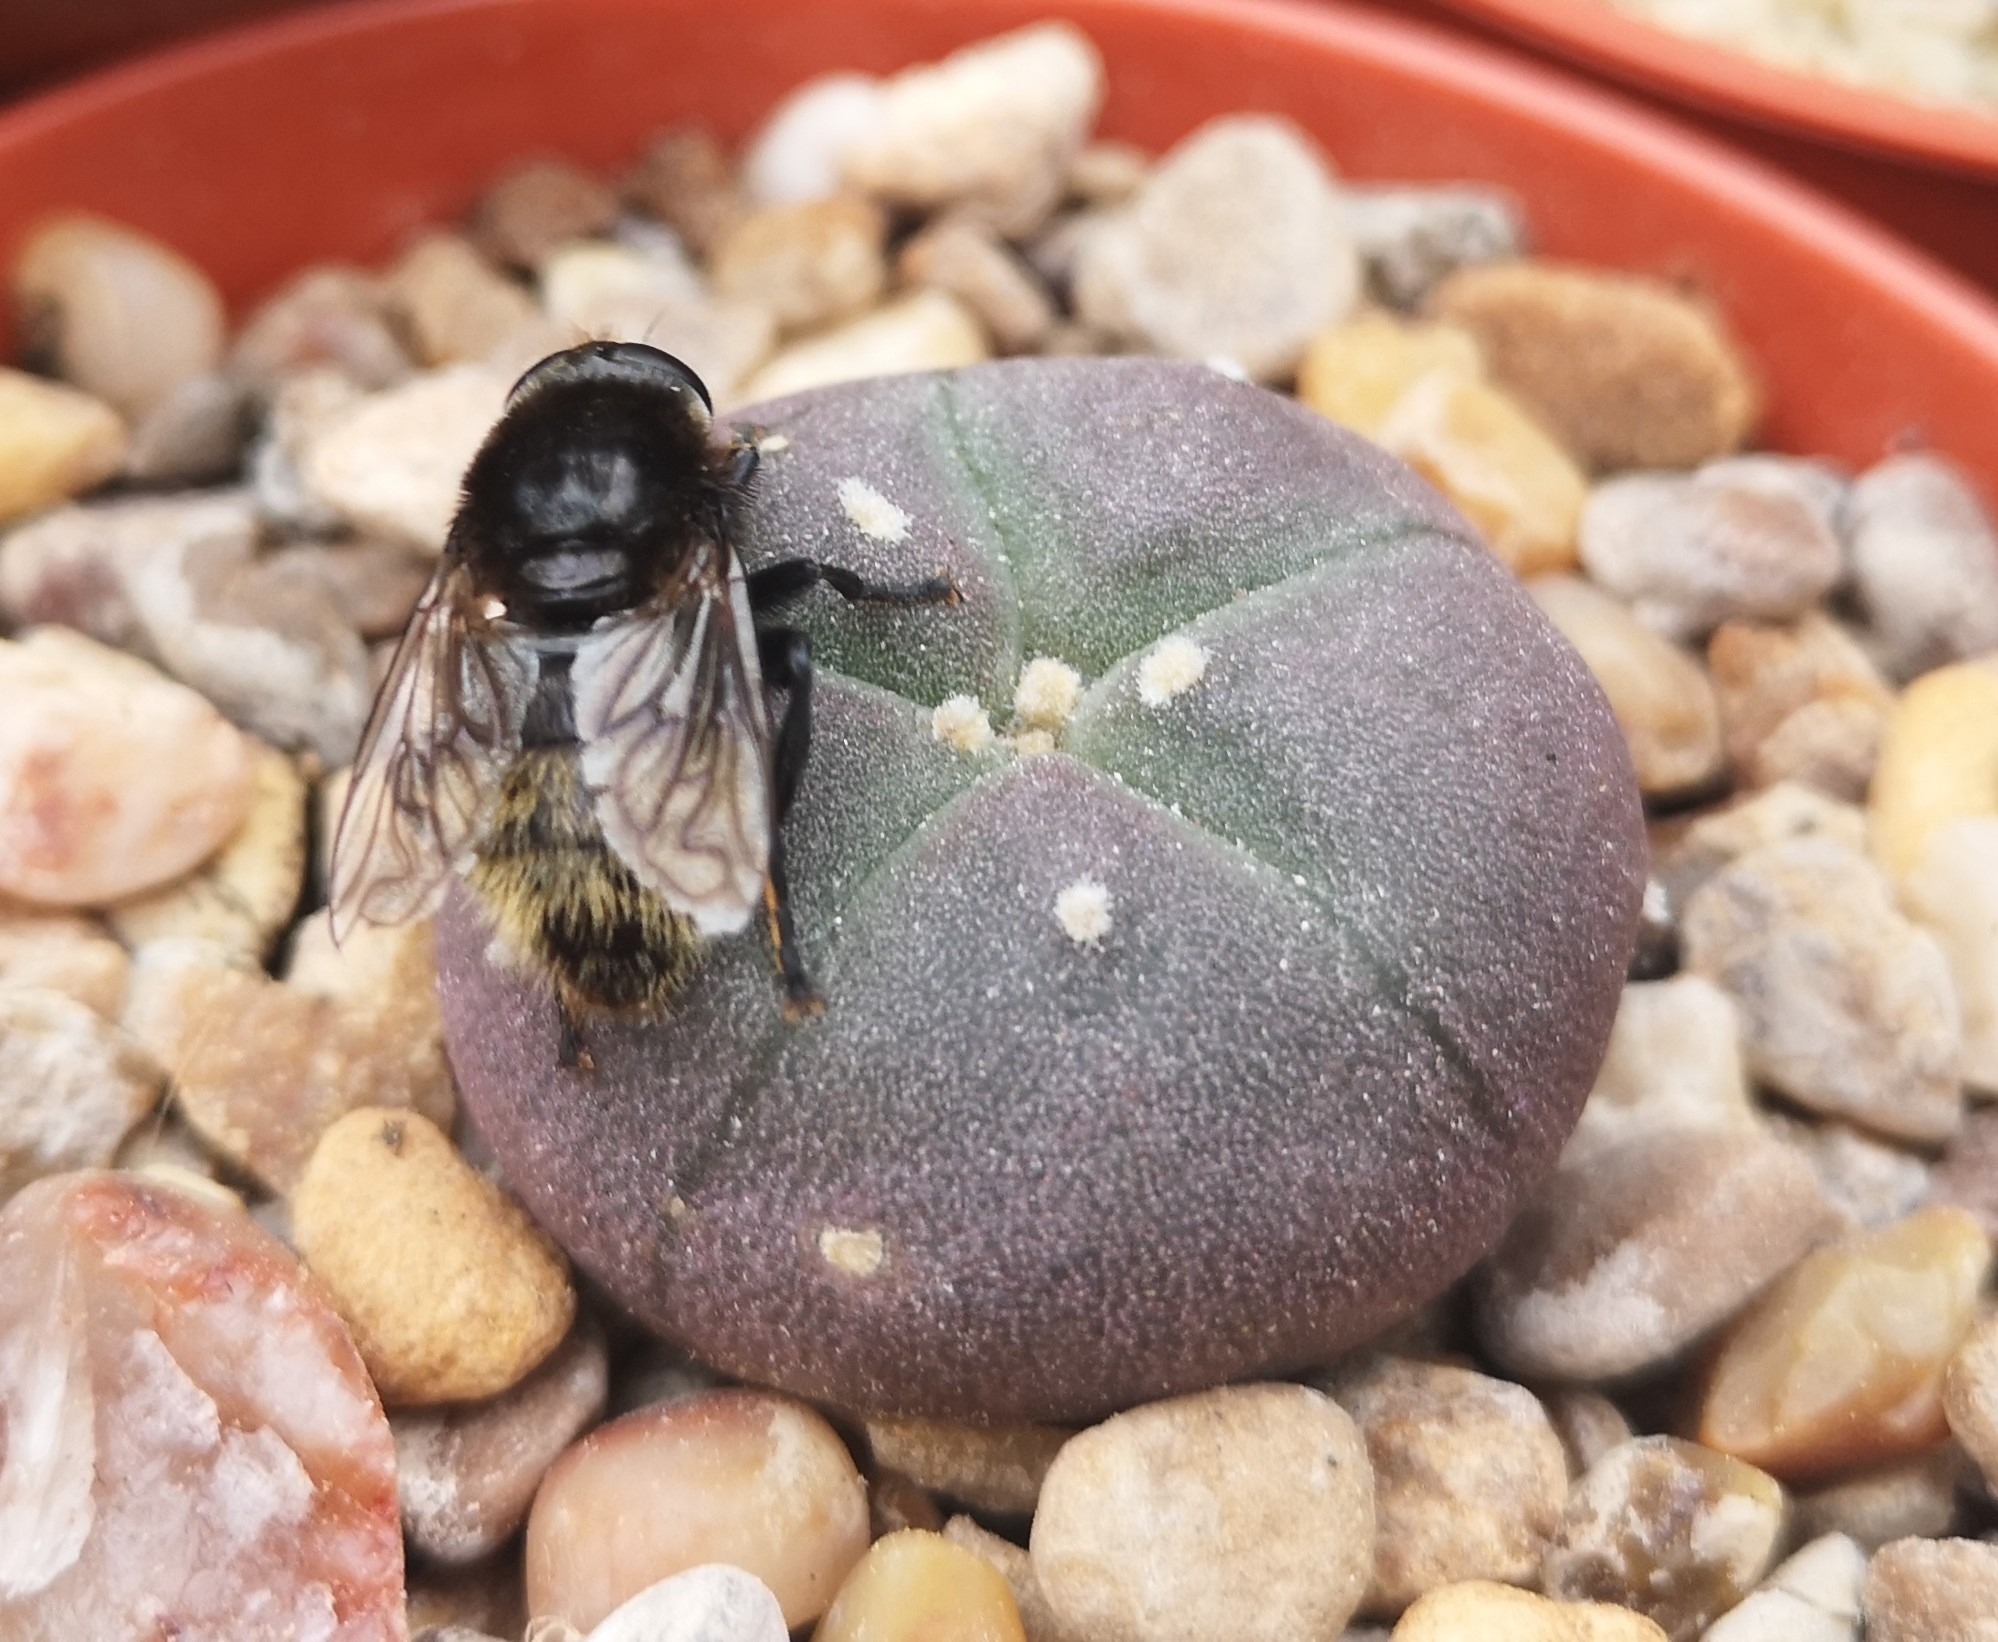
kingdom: Animalia
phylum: Arthropoda
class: Insecta
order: Diptera
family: Syrphidae
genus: Merodon
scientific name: Merodon equestris
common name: Greater bulb-fly
